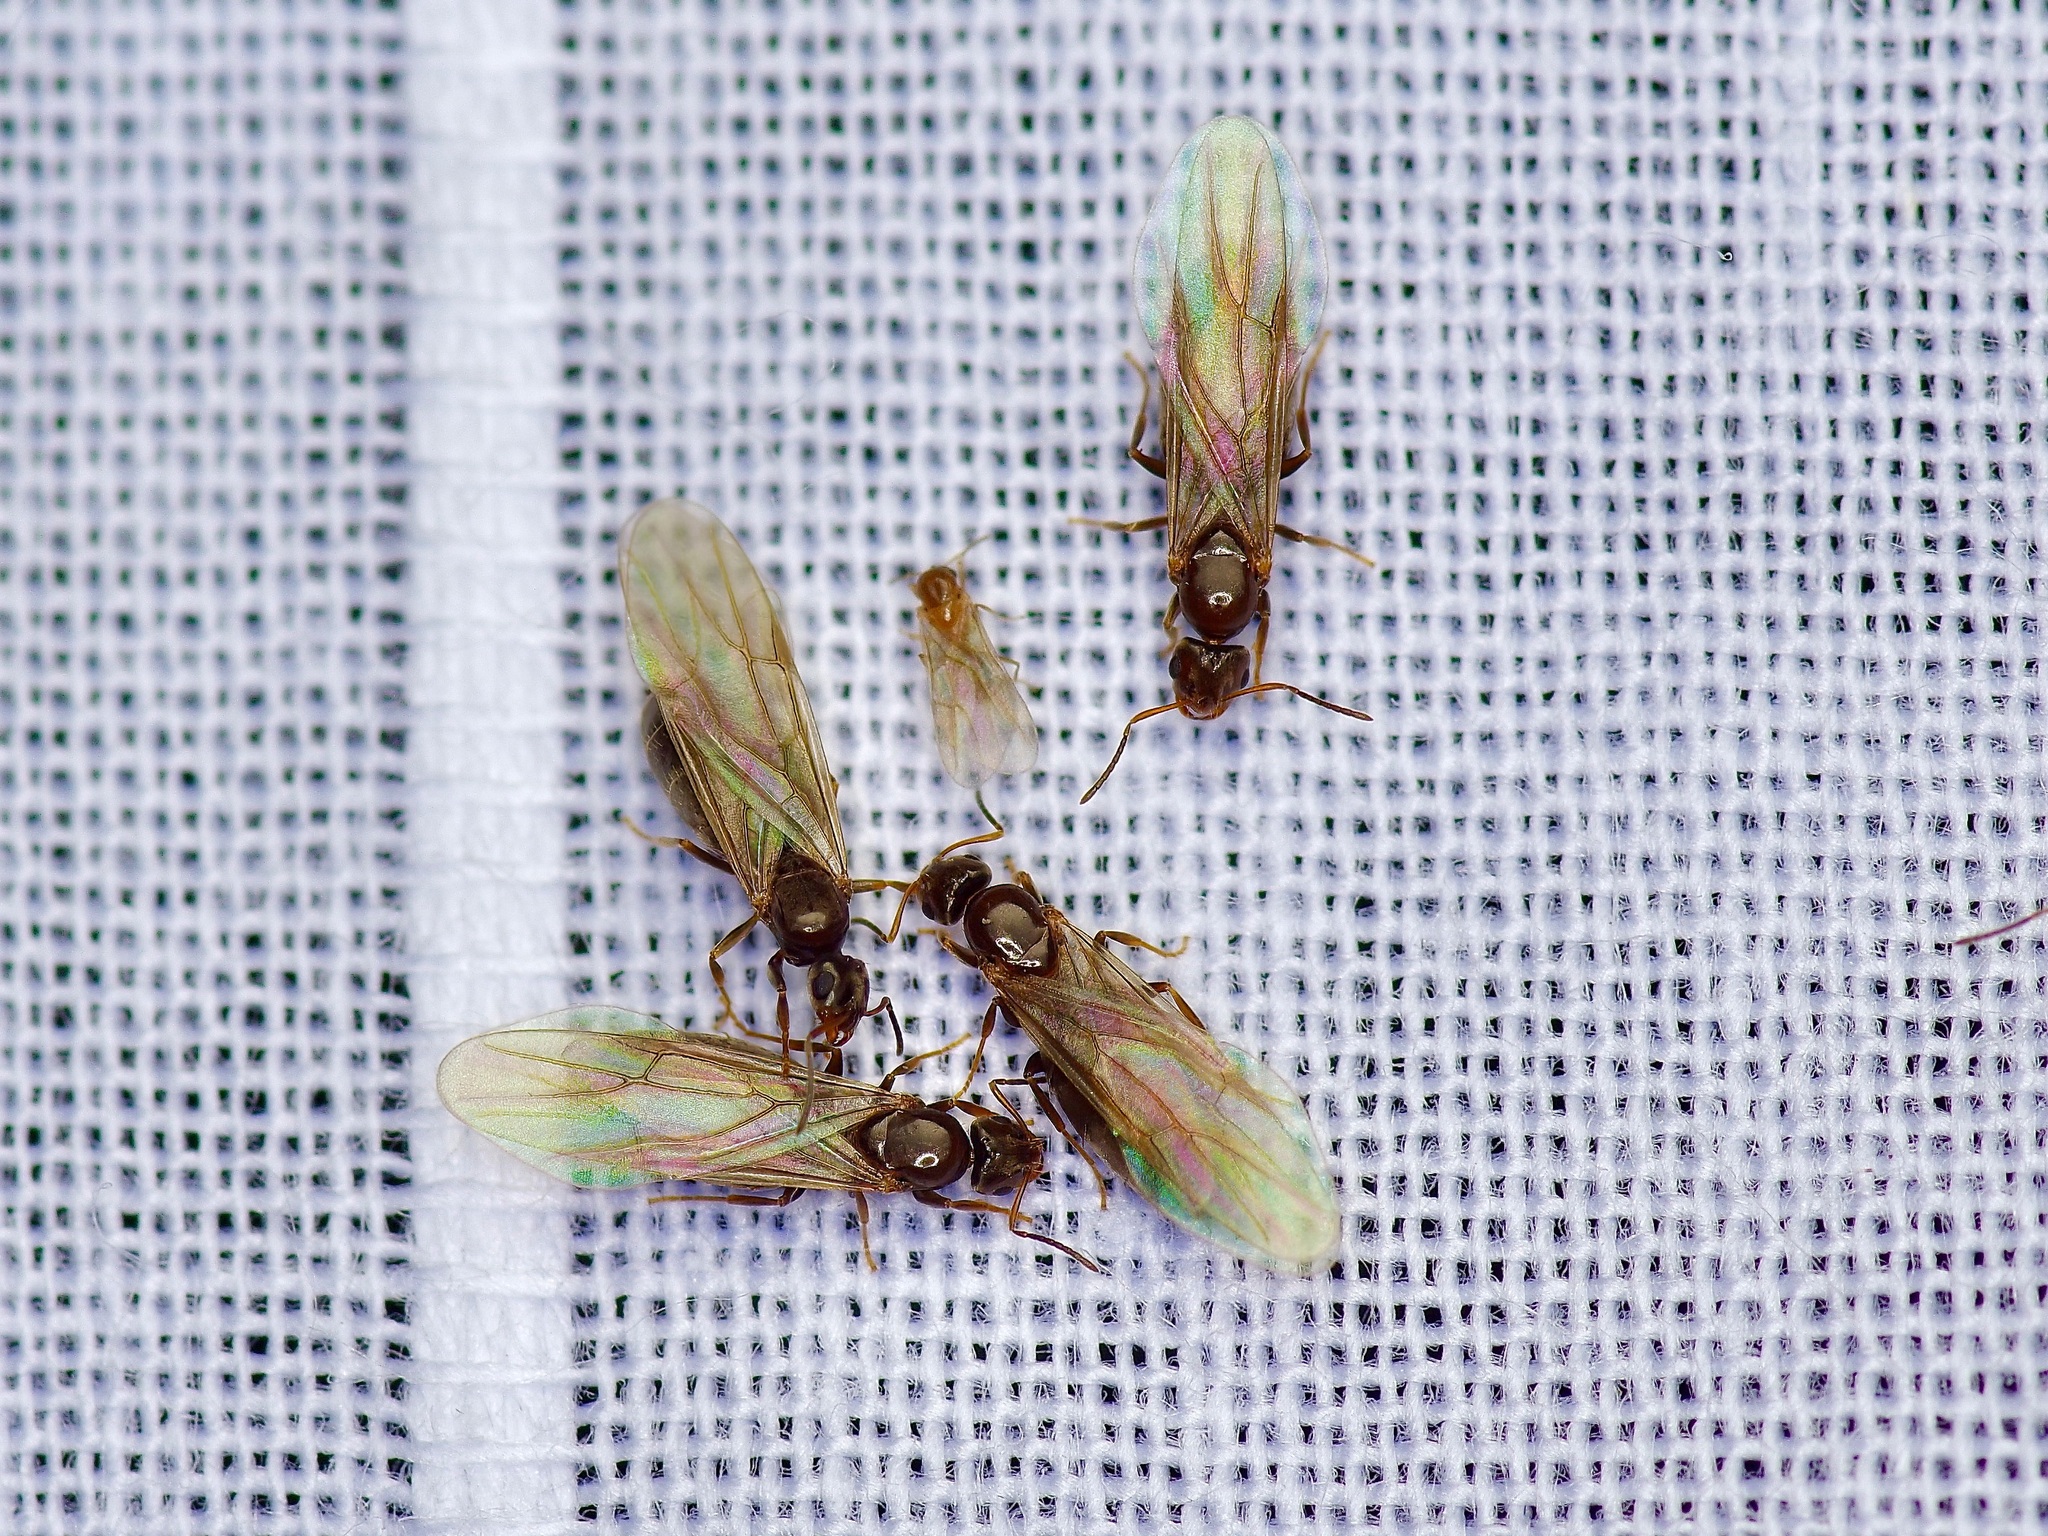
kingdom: Animalia
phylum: Arthropoda
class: Insecta
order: Hymenoptera
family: Formicidae
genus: Brachymyrmex
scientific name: Brachymyrmex patagonicus
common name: Dark rover ant
